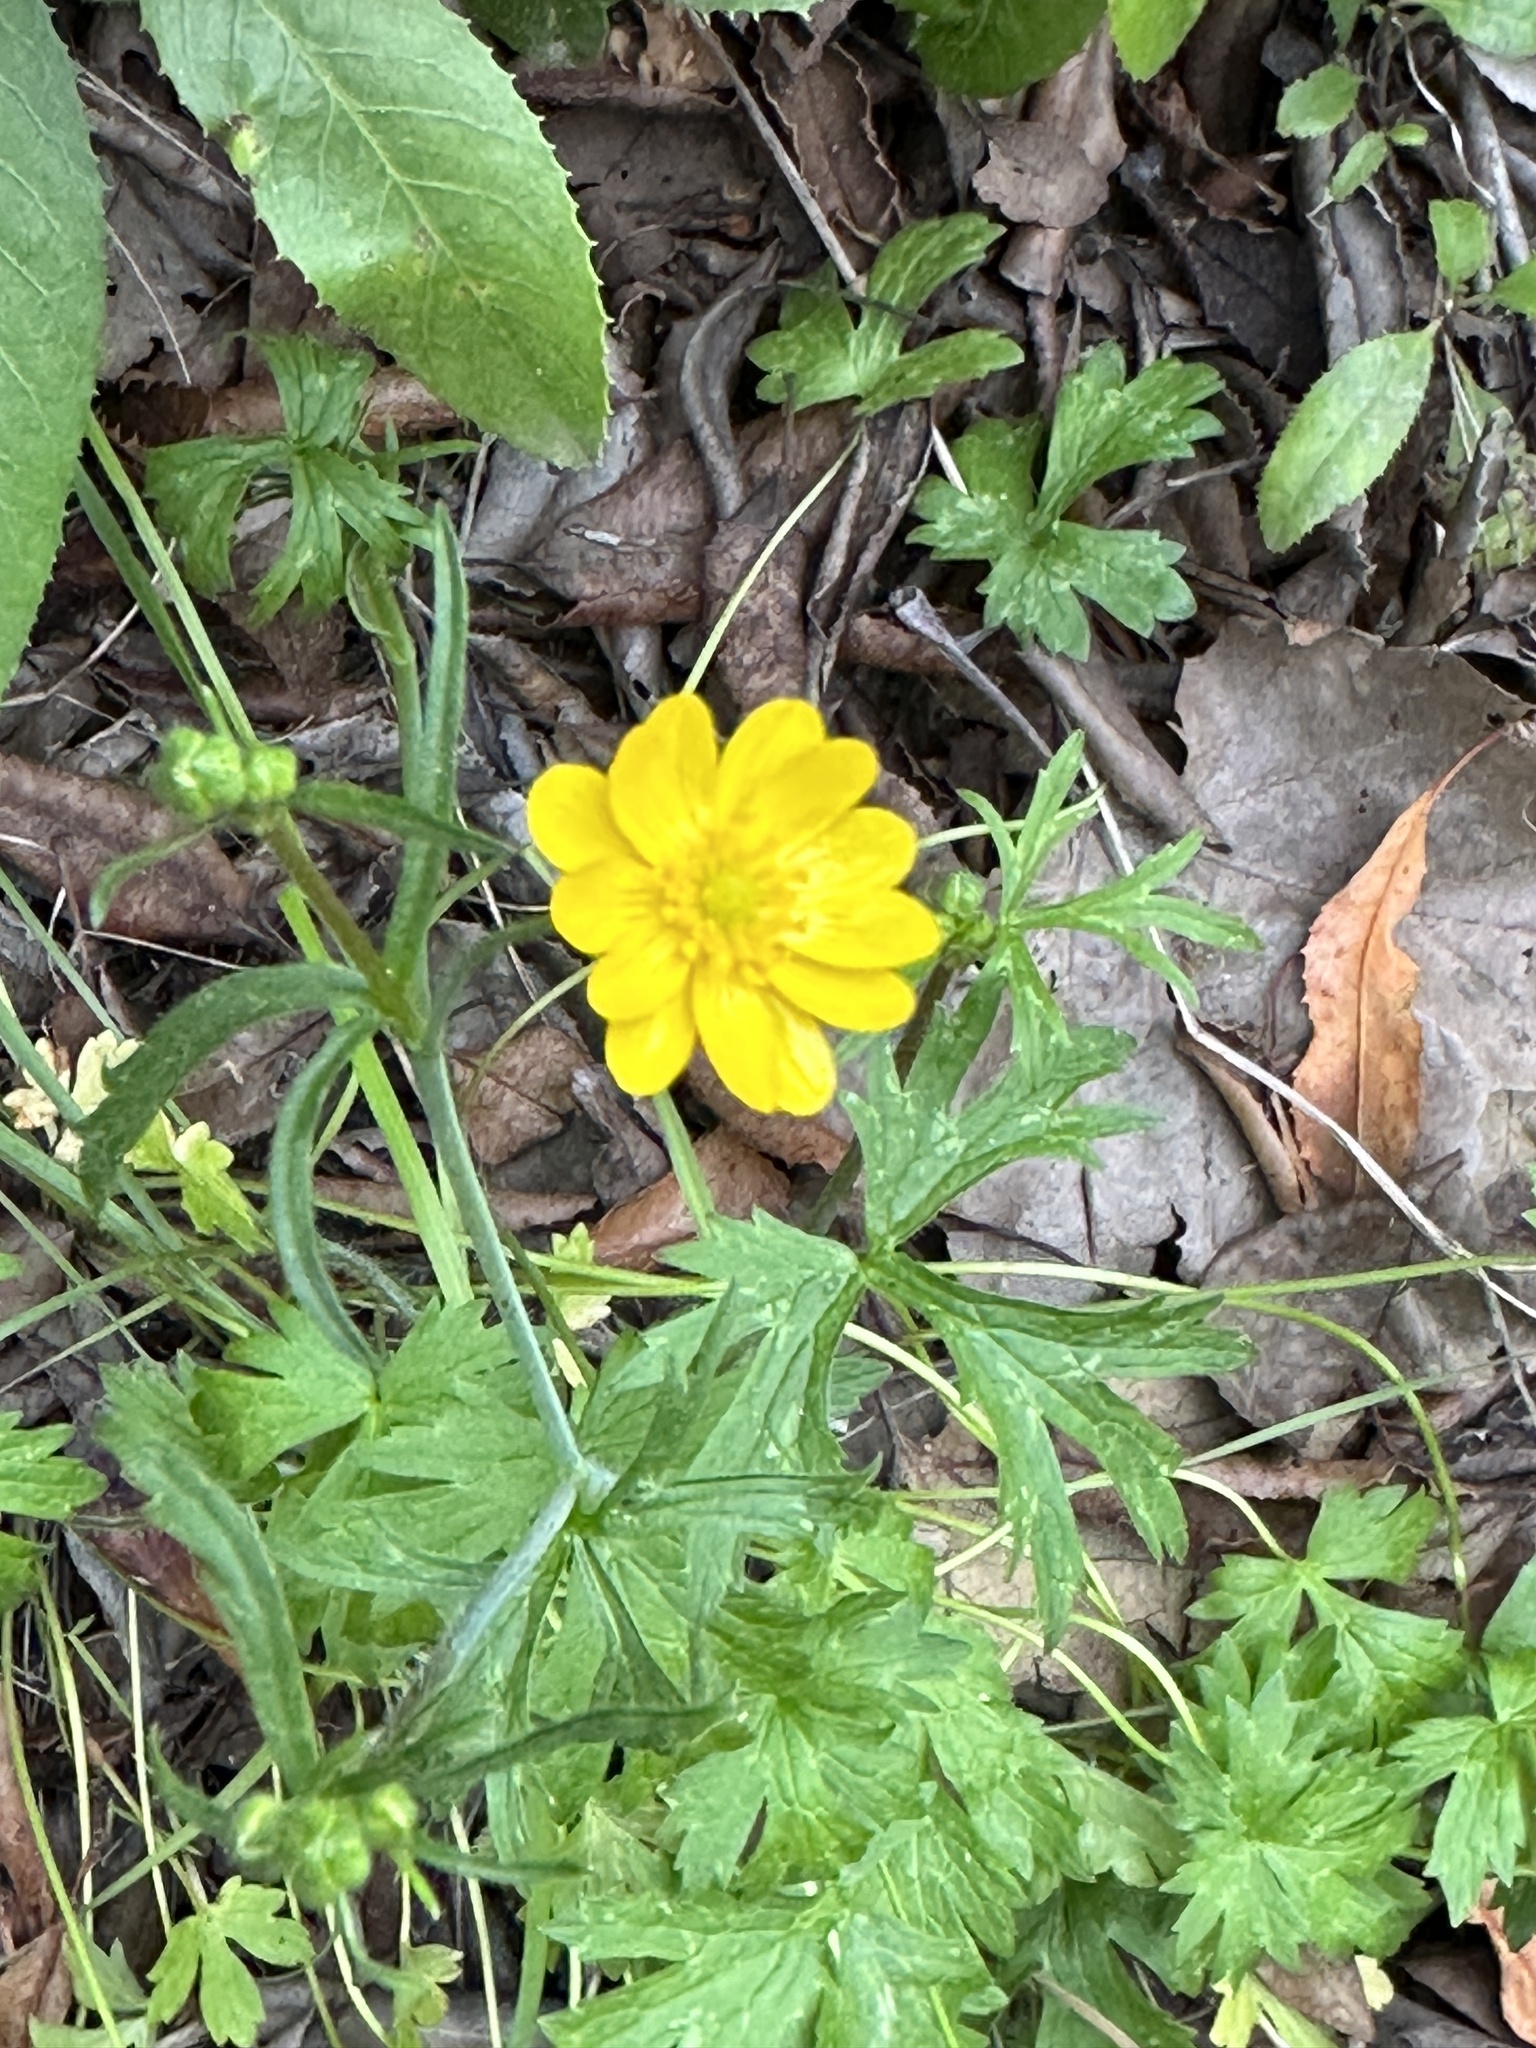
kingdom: Plantae
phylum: Tracheophyta
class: Magnoliopsida
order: Ranunculales
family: Ranunculaceae
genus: Ranunculus
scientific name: Ranunculus californicus
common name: California buttercup
